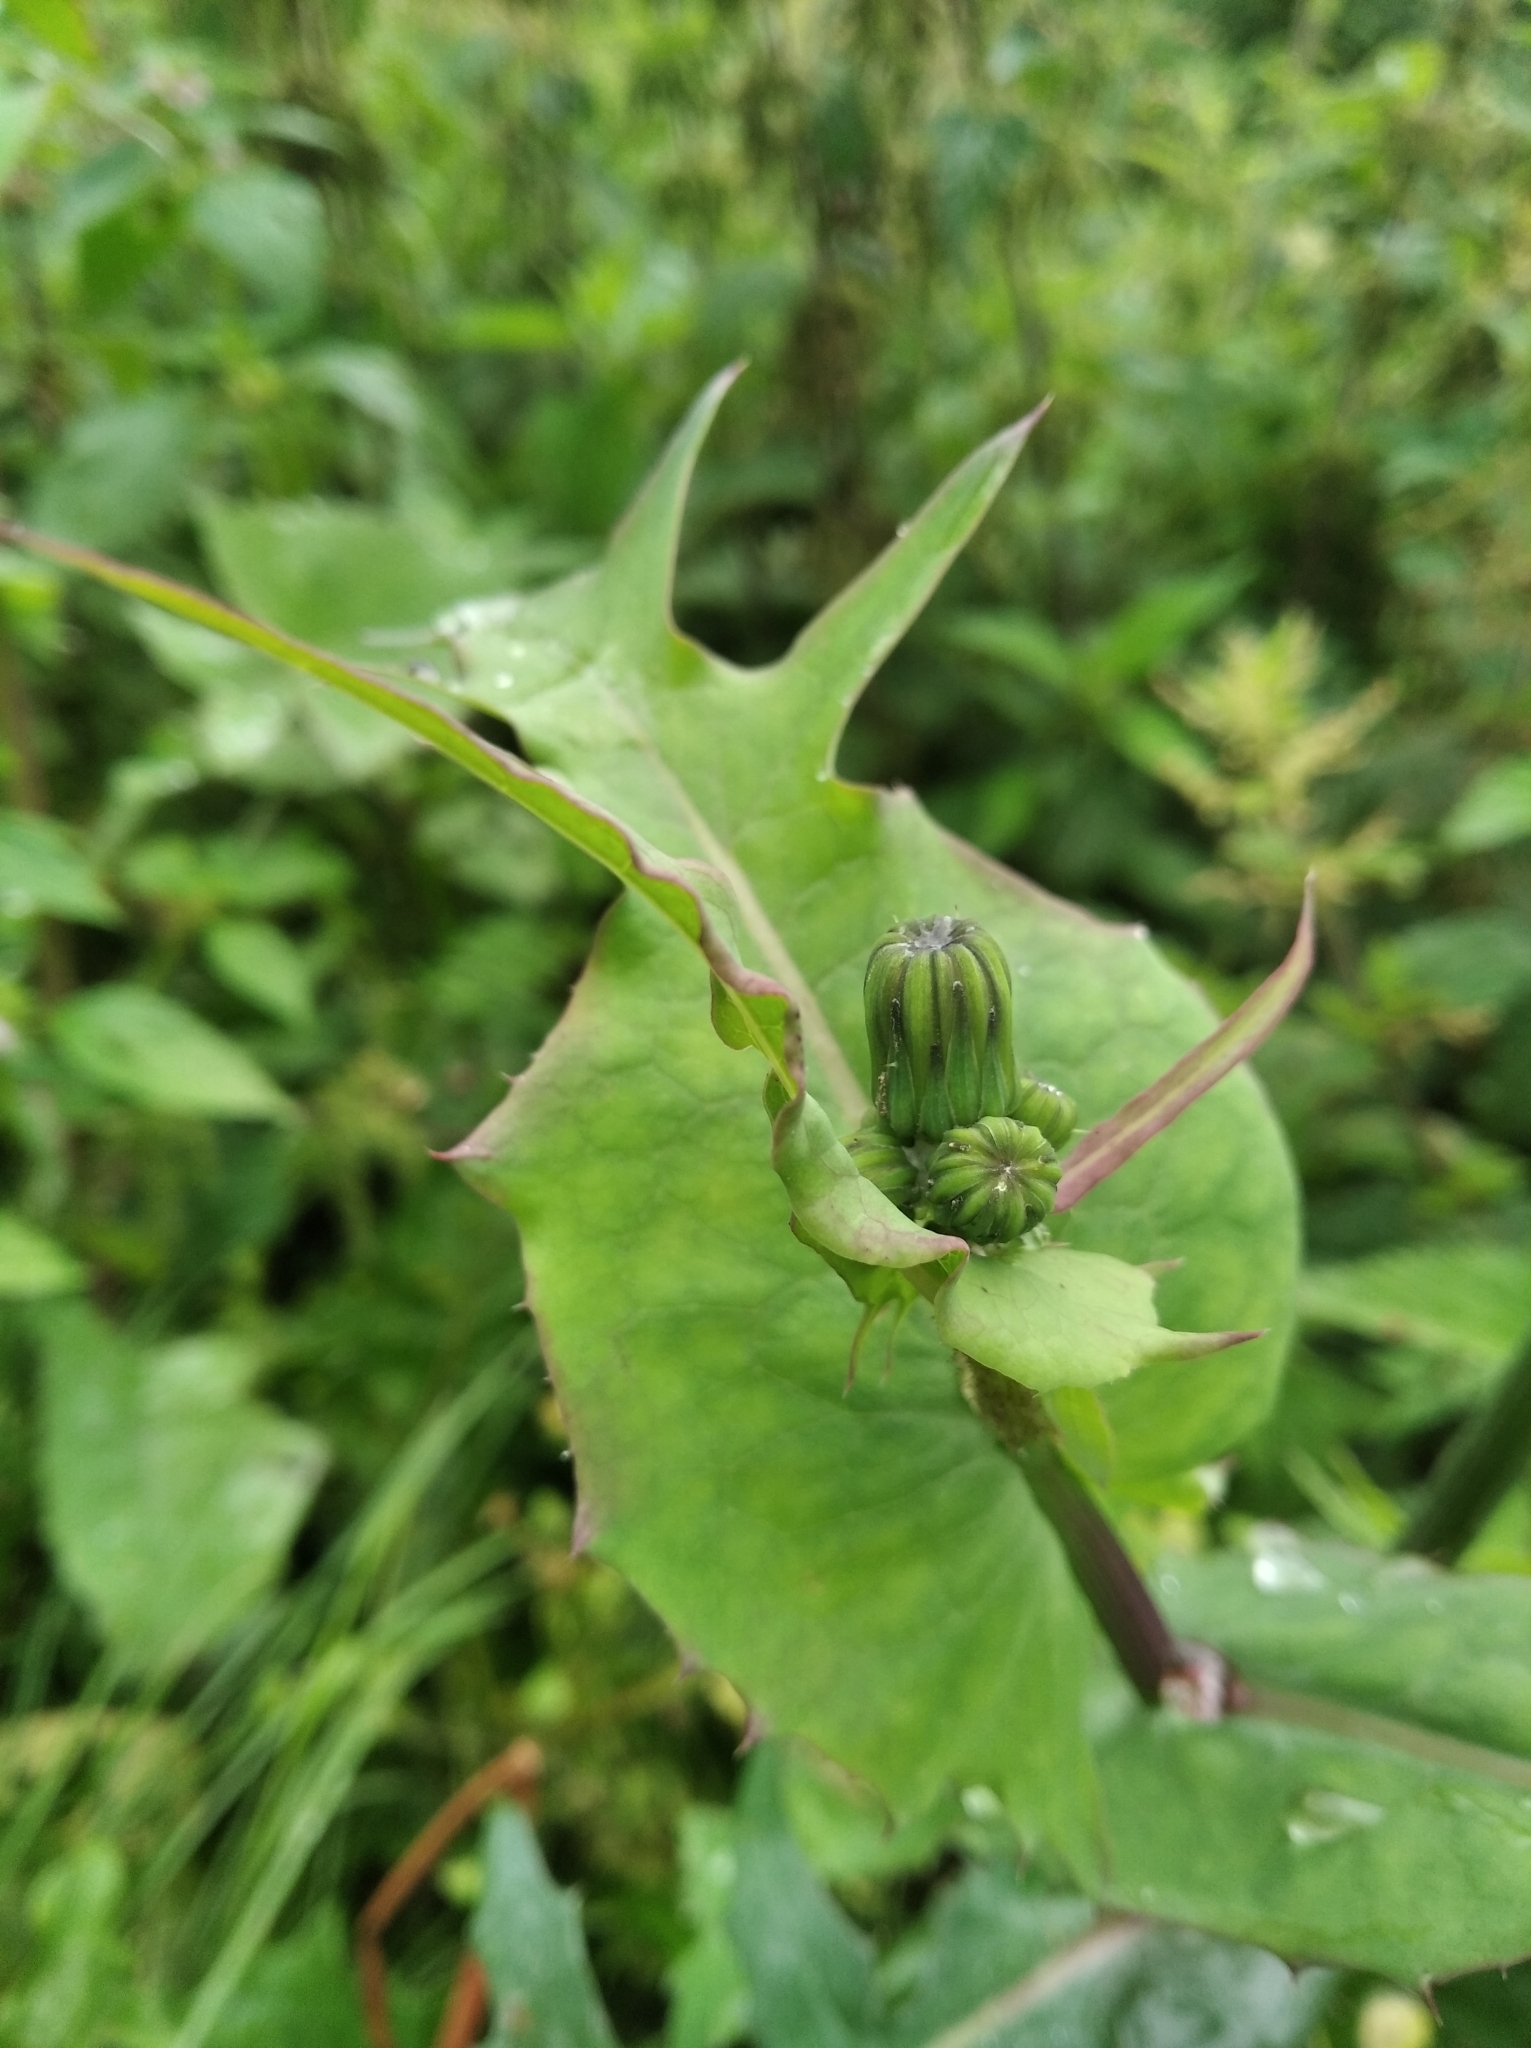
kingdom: Plantae
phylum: Tracheophyta
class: Magnoliopsida
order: Asterales
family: Asteraceae
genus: Sonchus
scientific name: Sonchus oleraceus
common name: Common sowthistle
